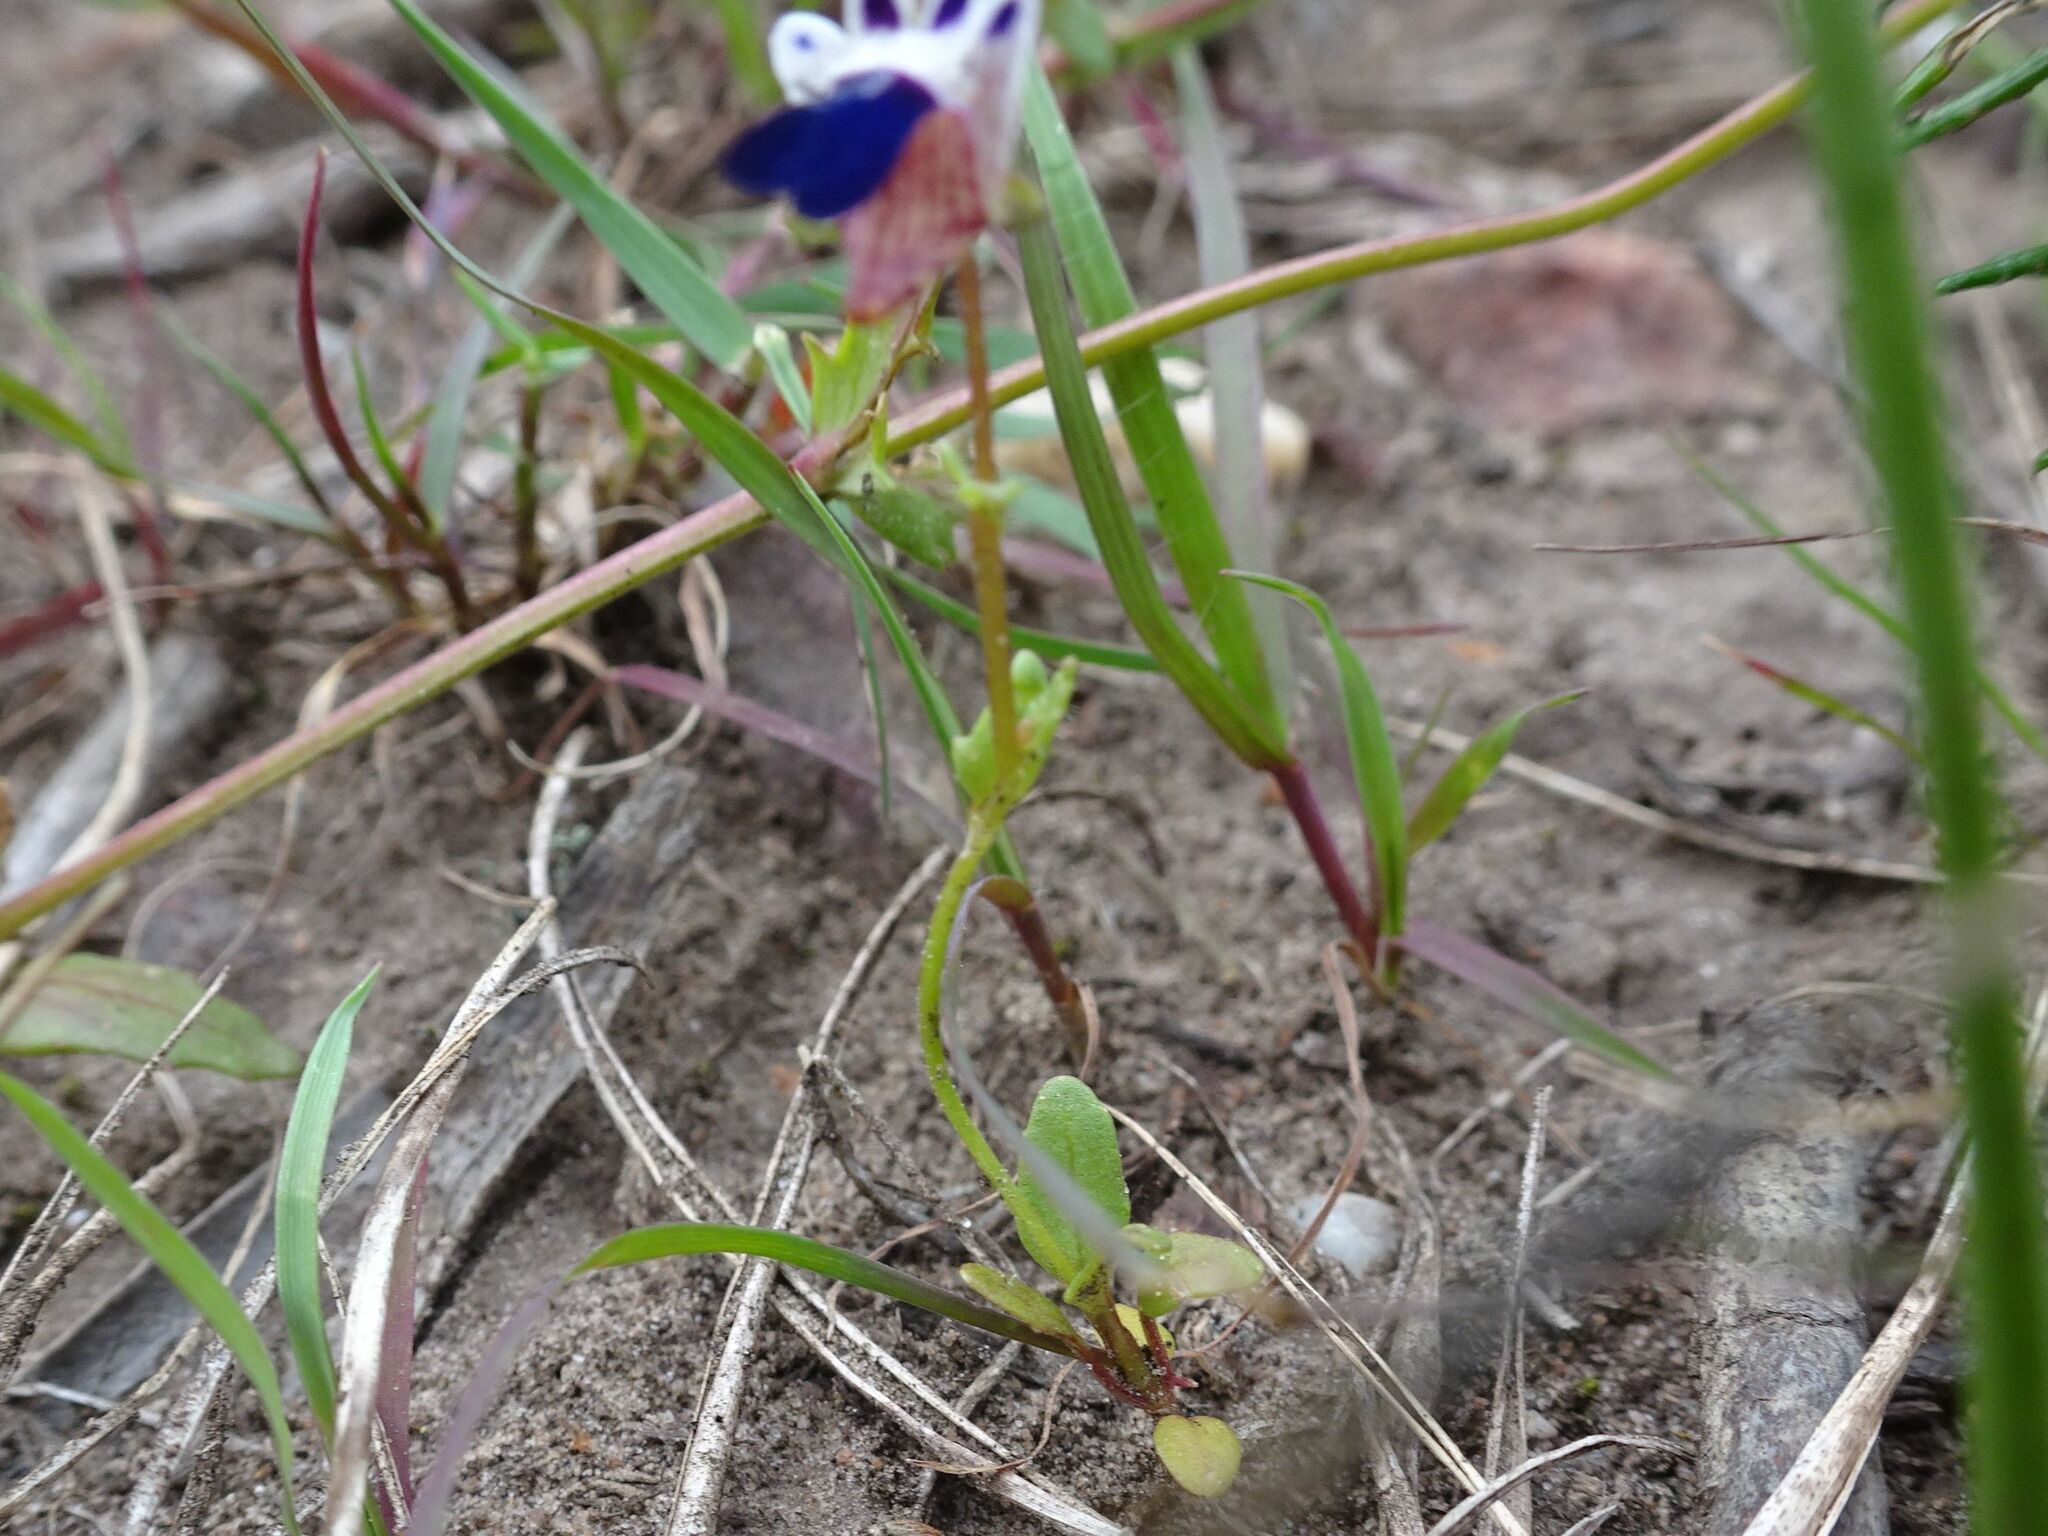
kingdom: Plantae
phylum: Tracheophyta
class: Magnoliopsida
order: Lamiales
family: Scrophulariaceae
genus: Nemesia
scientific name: Nemesia barbata
